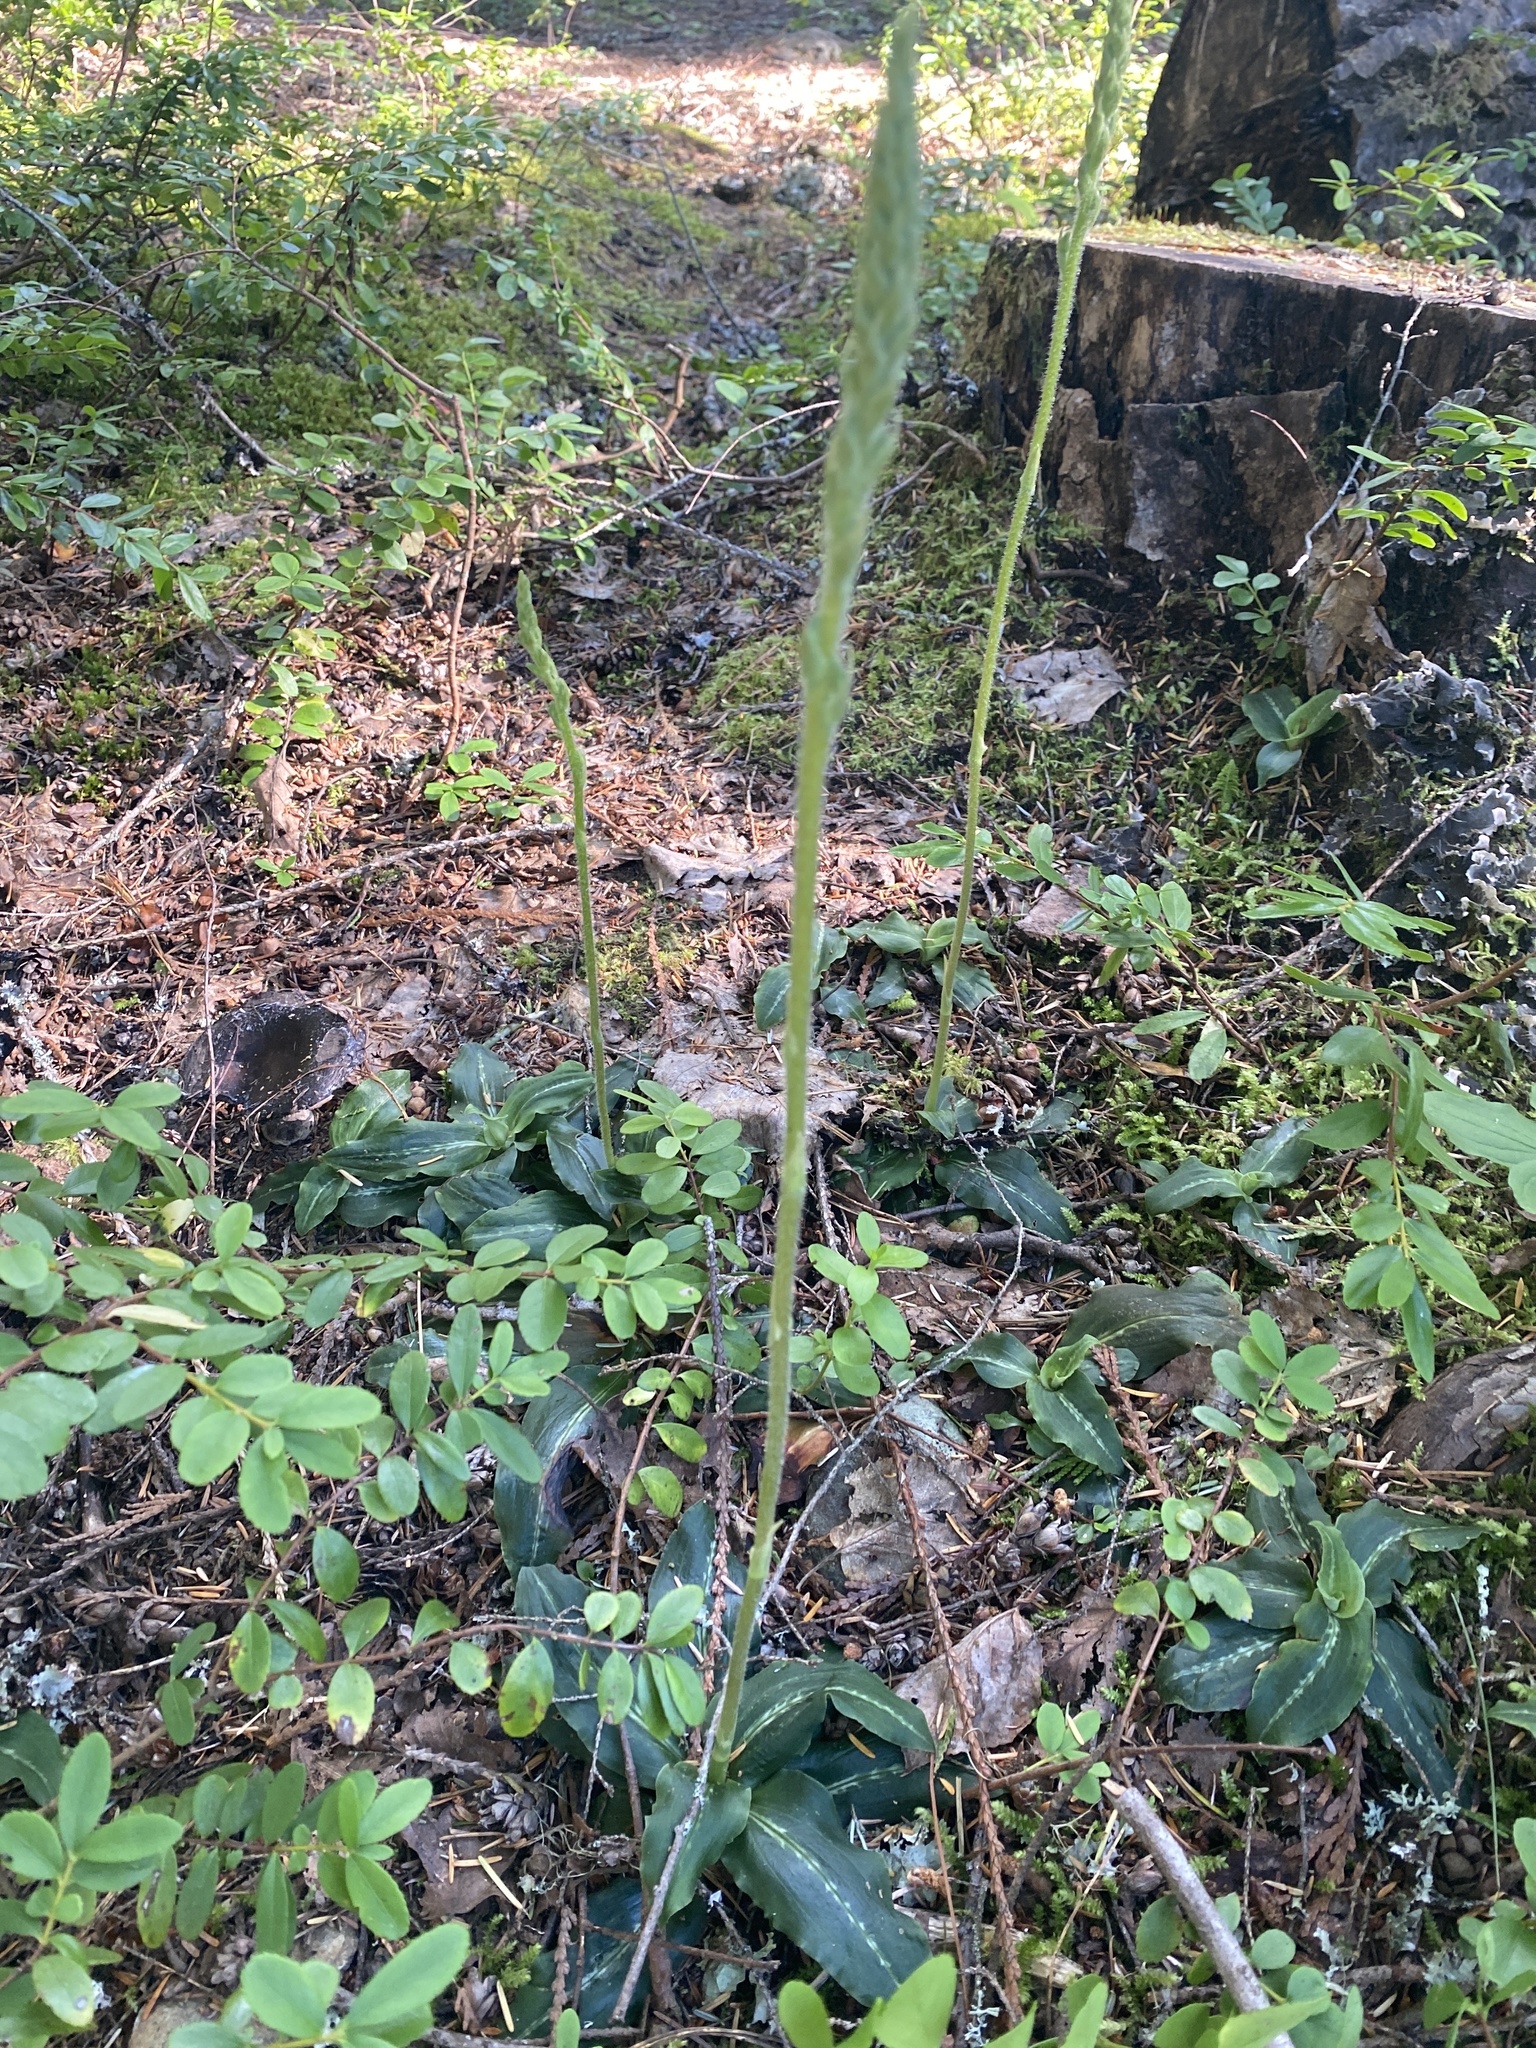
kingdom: Plantae
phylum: Tracheophyta
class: Liliopsida
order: Asparagales
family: Orchidaceae
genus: Goodyera
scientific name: Goodyera oblongifolia
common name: Giant rattlesnake-plantain
